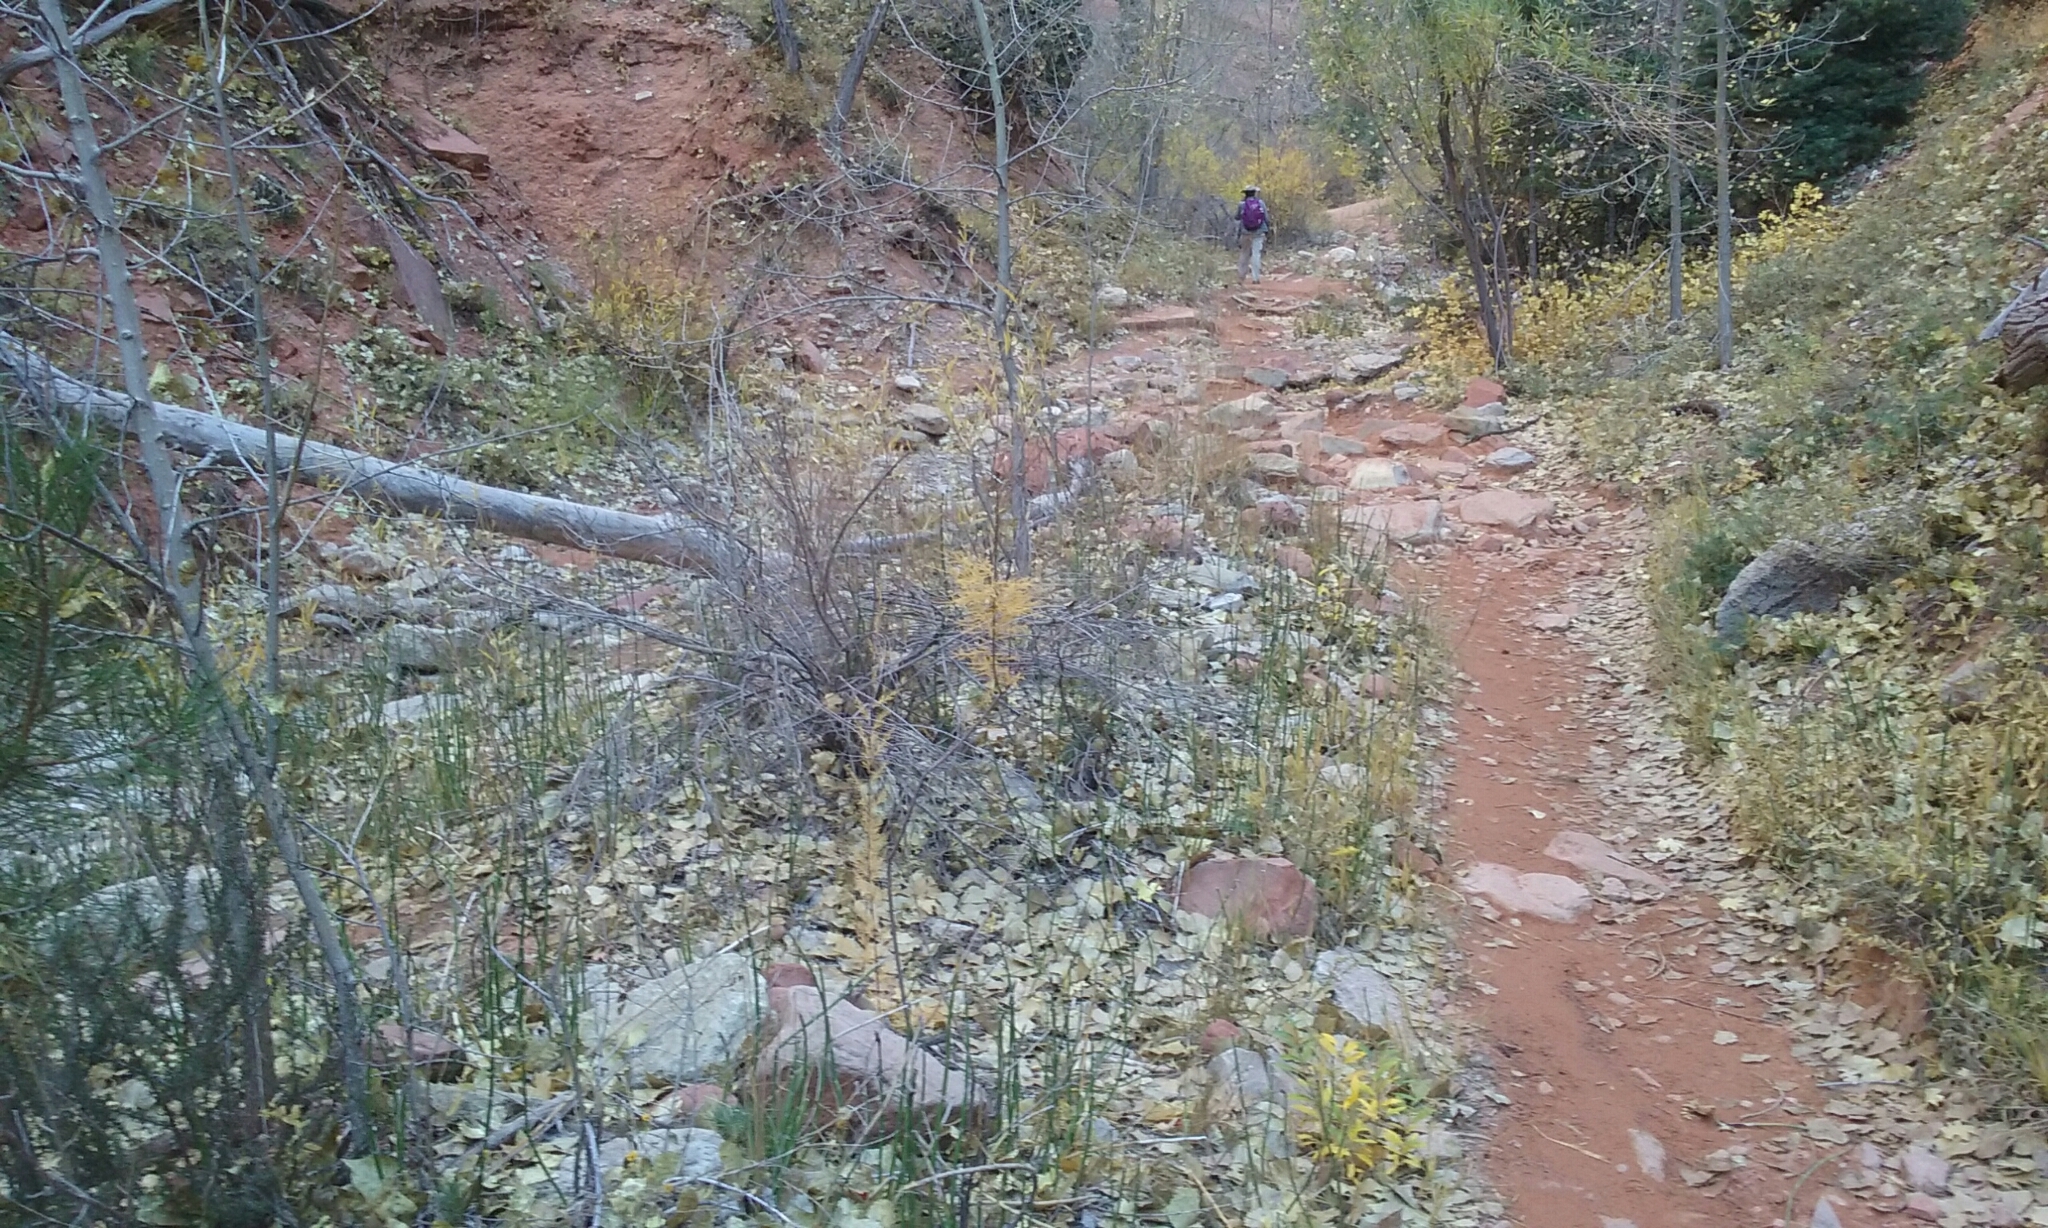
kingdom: Plantae
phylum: Tracheophyta
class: Magnoliopsida
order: Caryophyllales
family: Tamaricaceae
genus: Tamarix
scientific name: Tamarix
